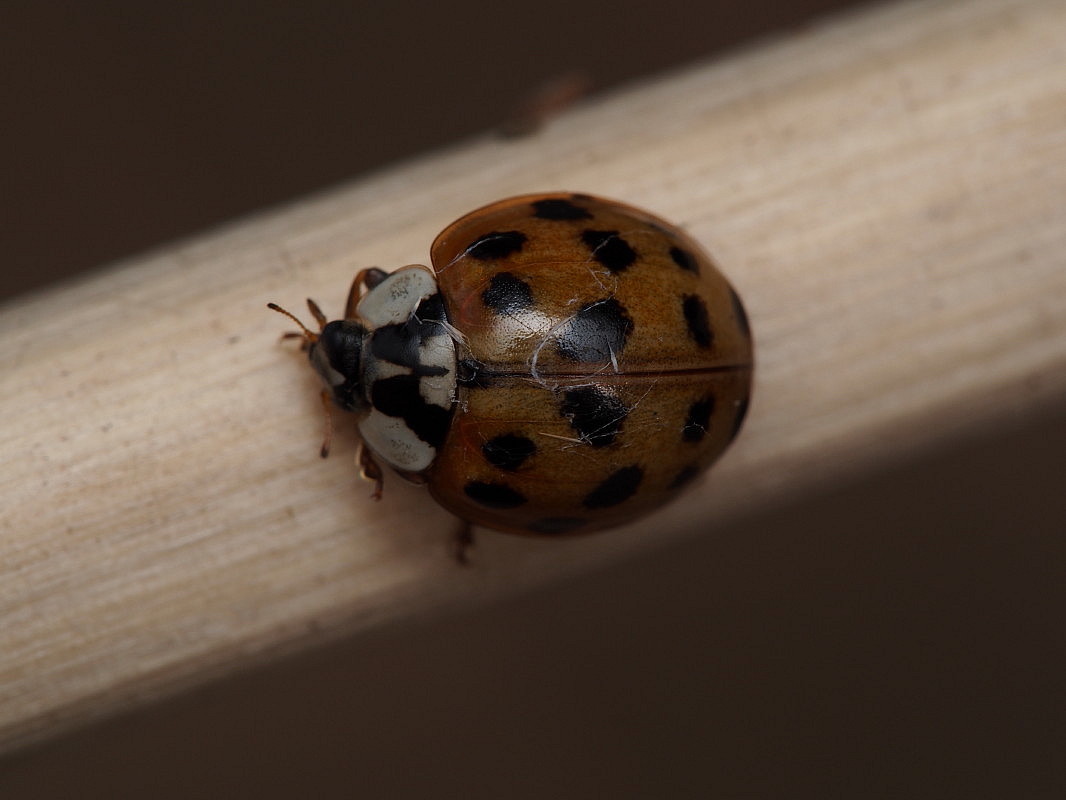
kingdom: Animalia
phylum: Arthropoda
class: Insecta
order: Coleoptera
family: Coccinellidae
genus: Harmonia
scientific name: Harmonia axyridis
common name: Harlequin ladybird
